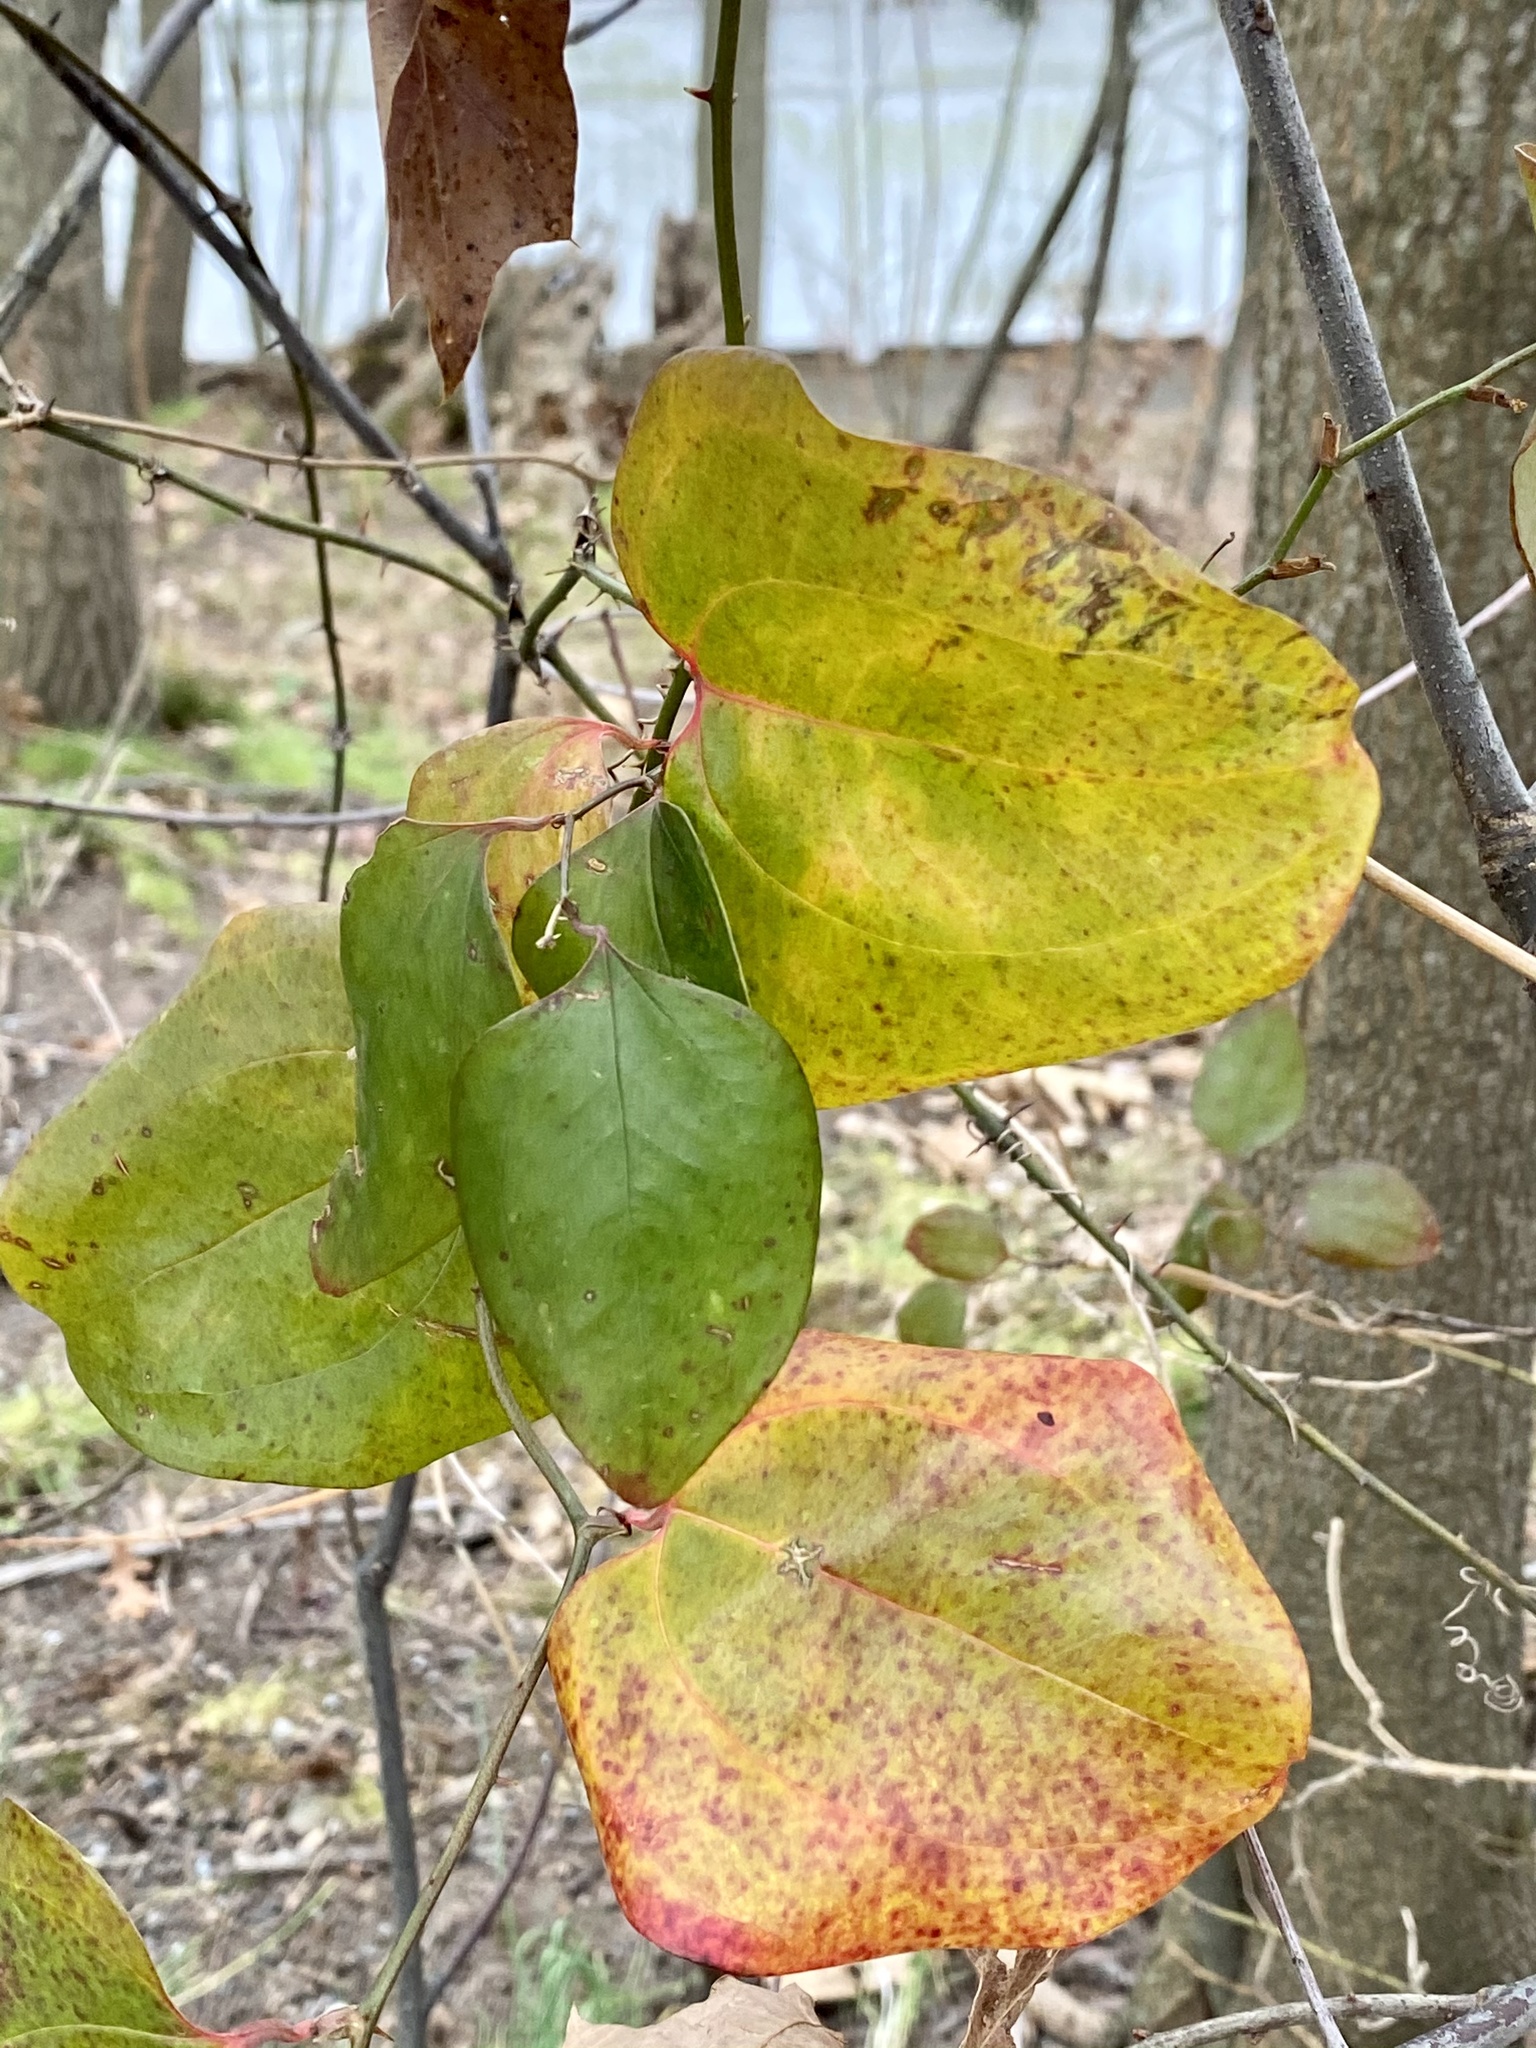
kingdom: Plantae
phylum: Tracheophyta
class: Liliopsida
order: Liliales
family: Smilacaceae
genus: Smilax
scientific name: Smilax rotundifolia
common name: Bullbriar
